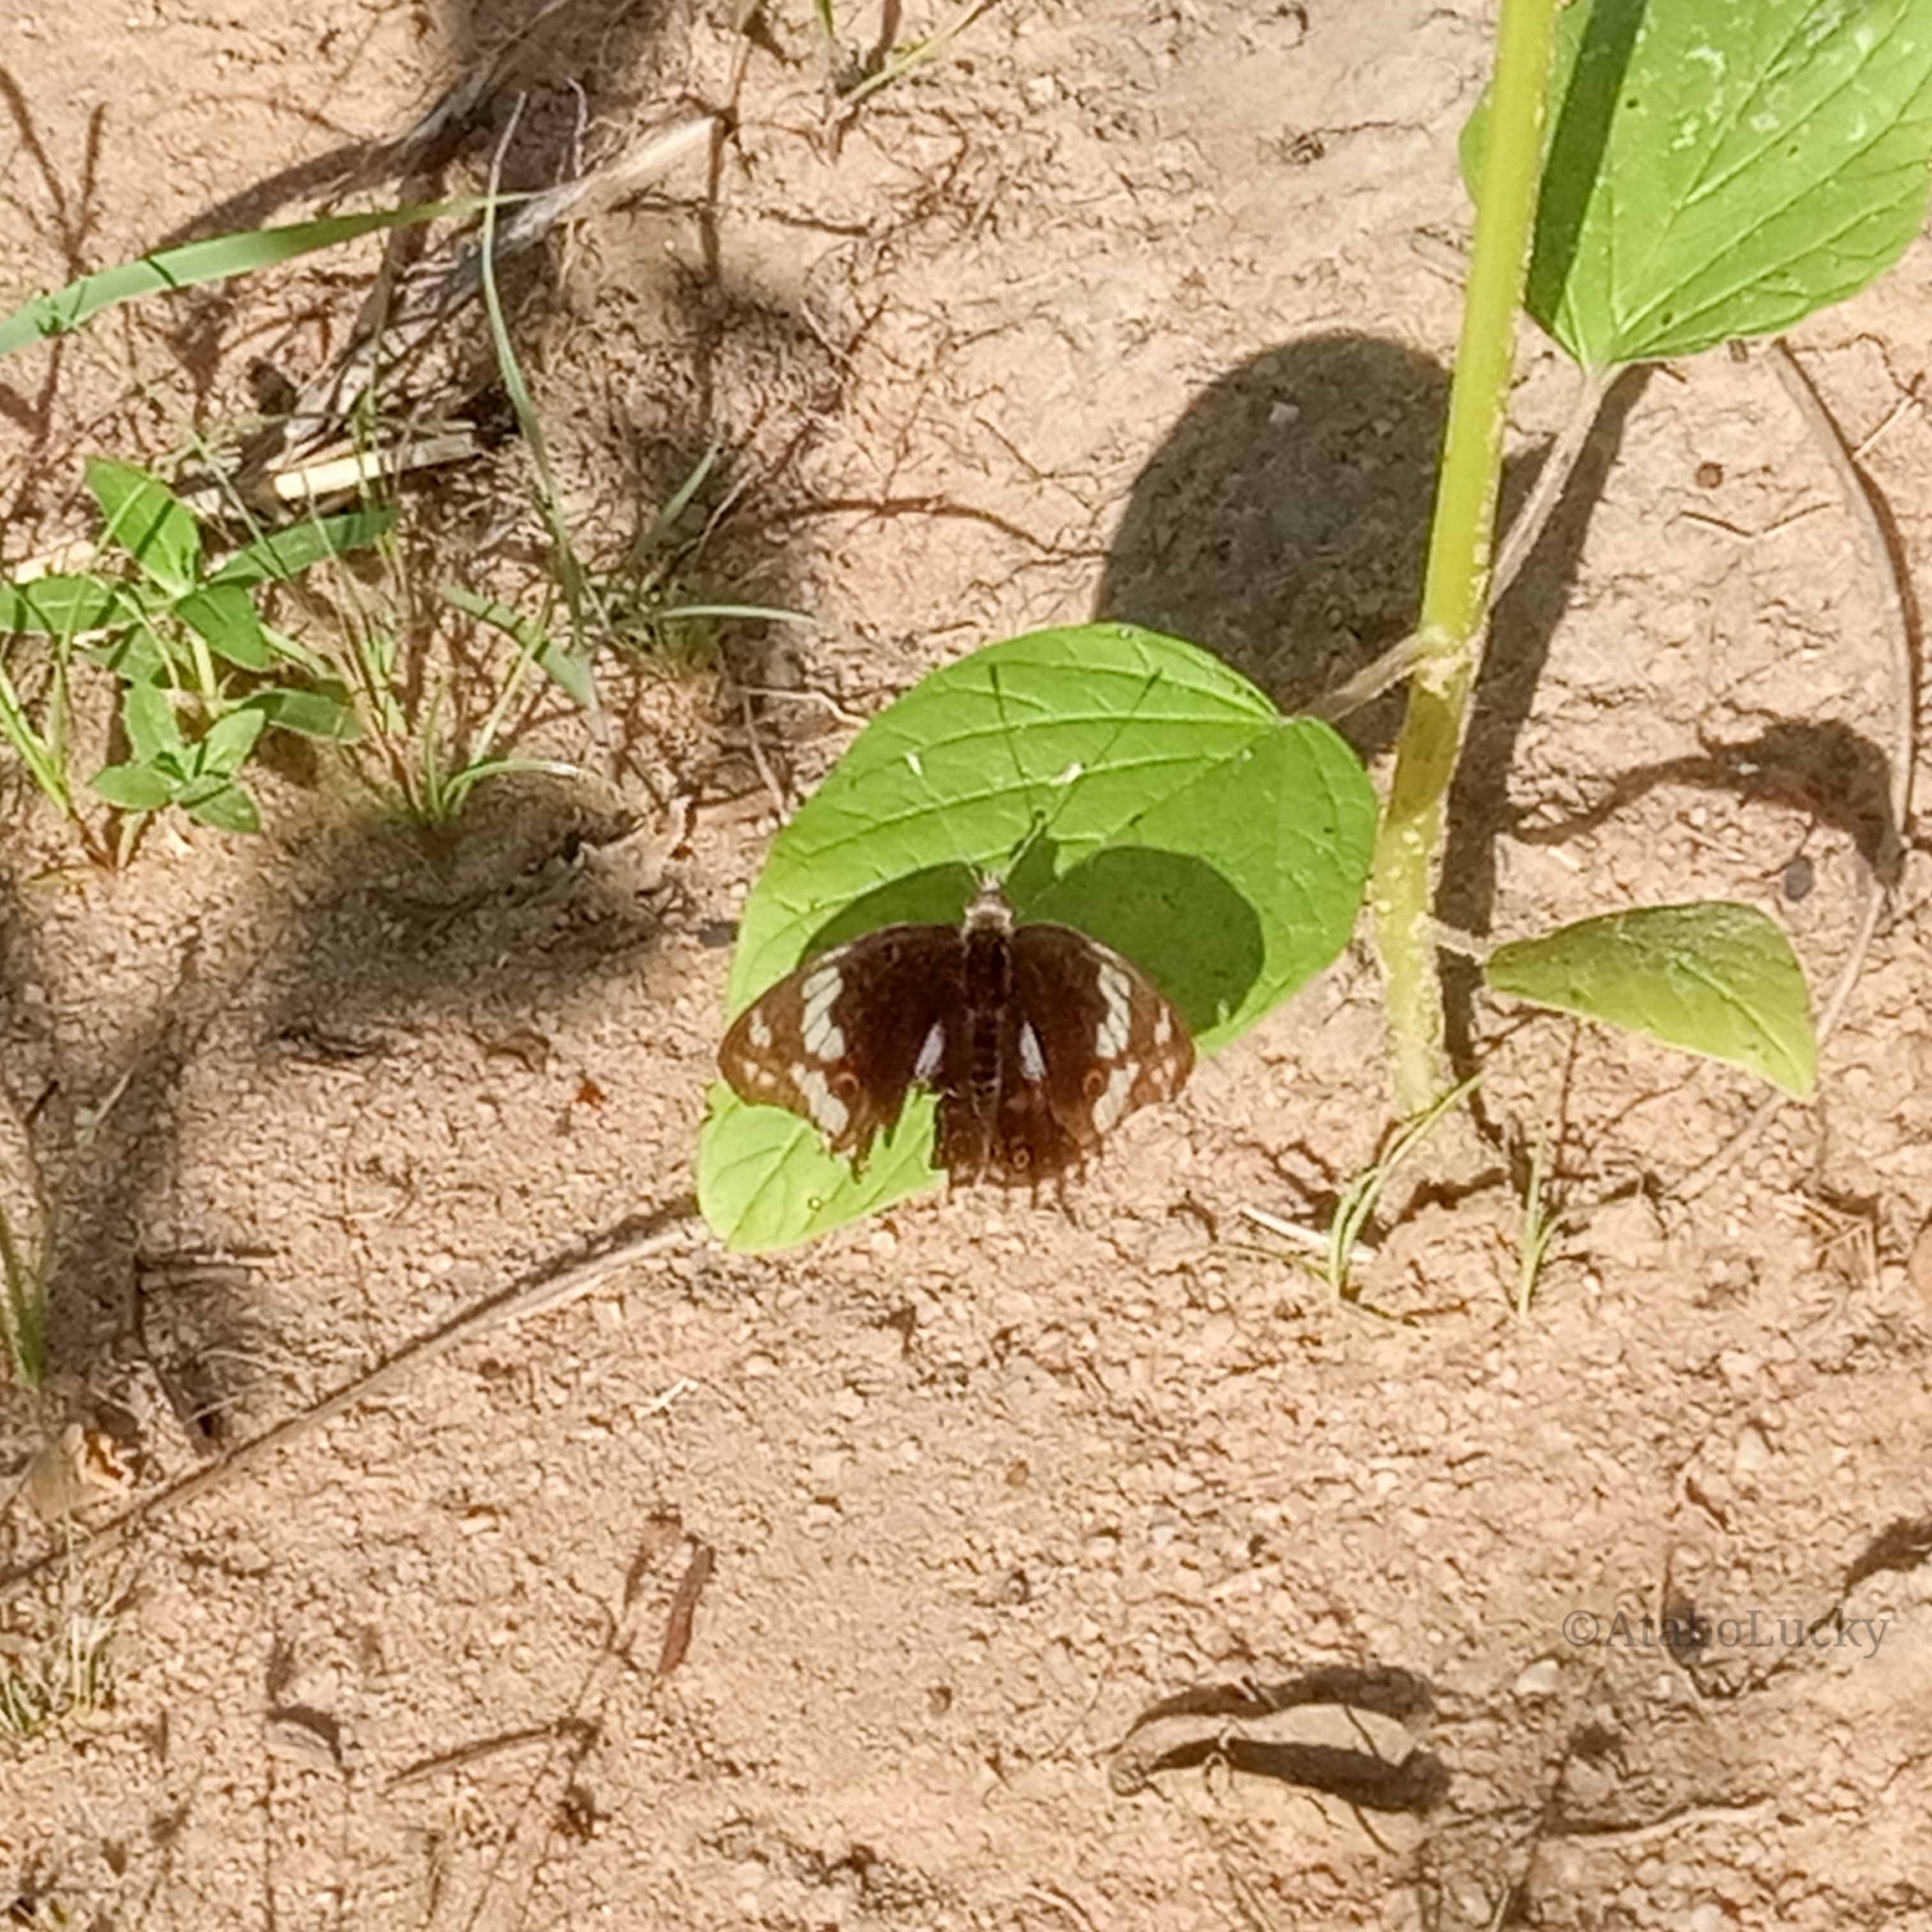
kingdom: Animalia
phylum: Arthropoda
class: Insecta
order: Lepidoptera
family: Nymphalidae
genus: Junonia
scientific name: Junonia oenone
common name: Dark blue pansy
